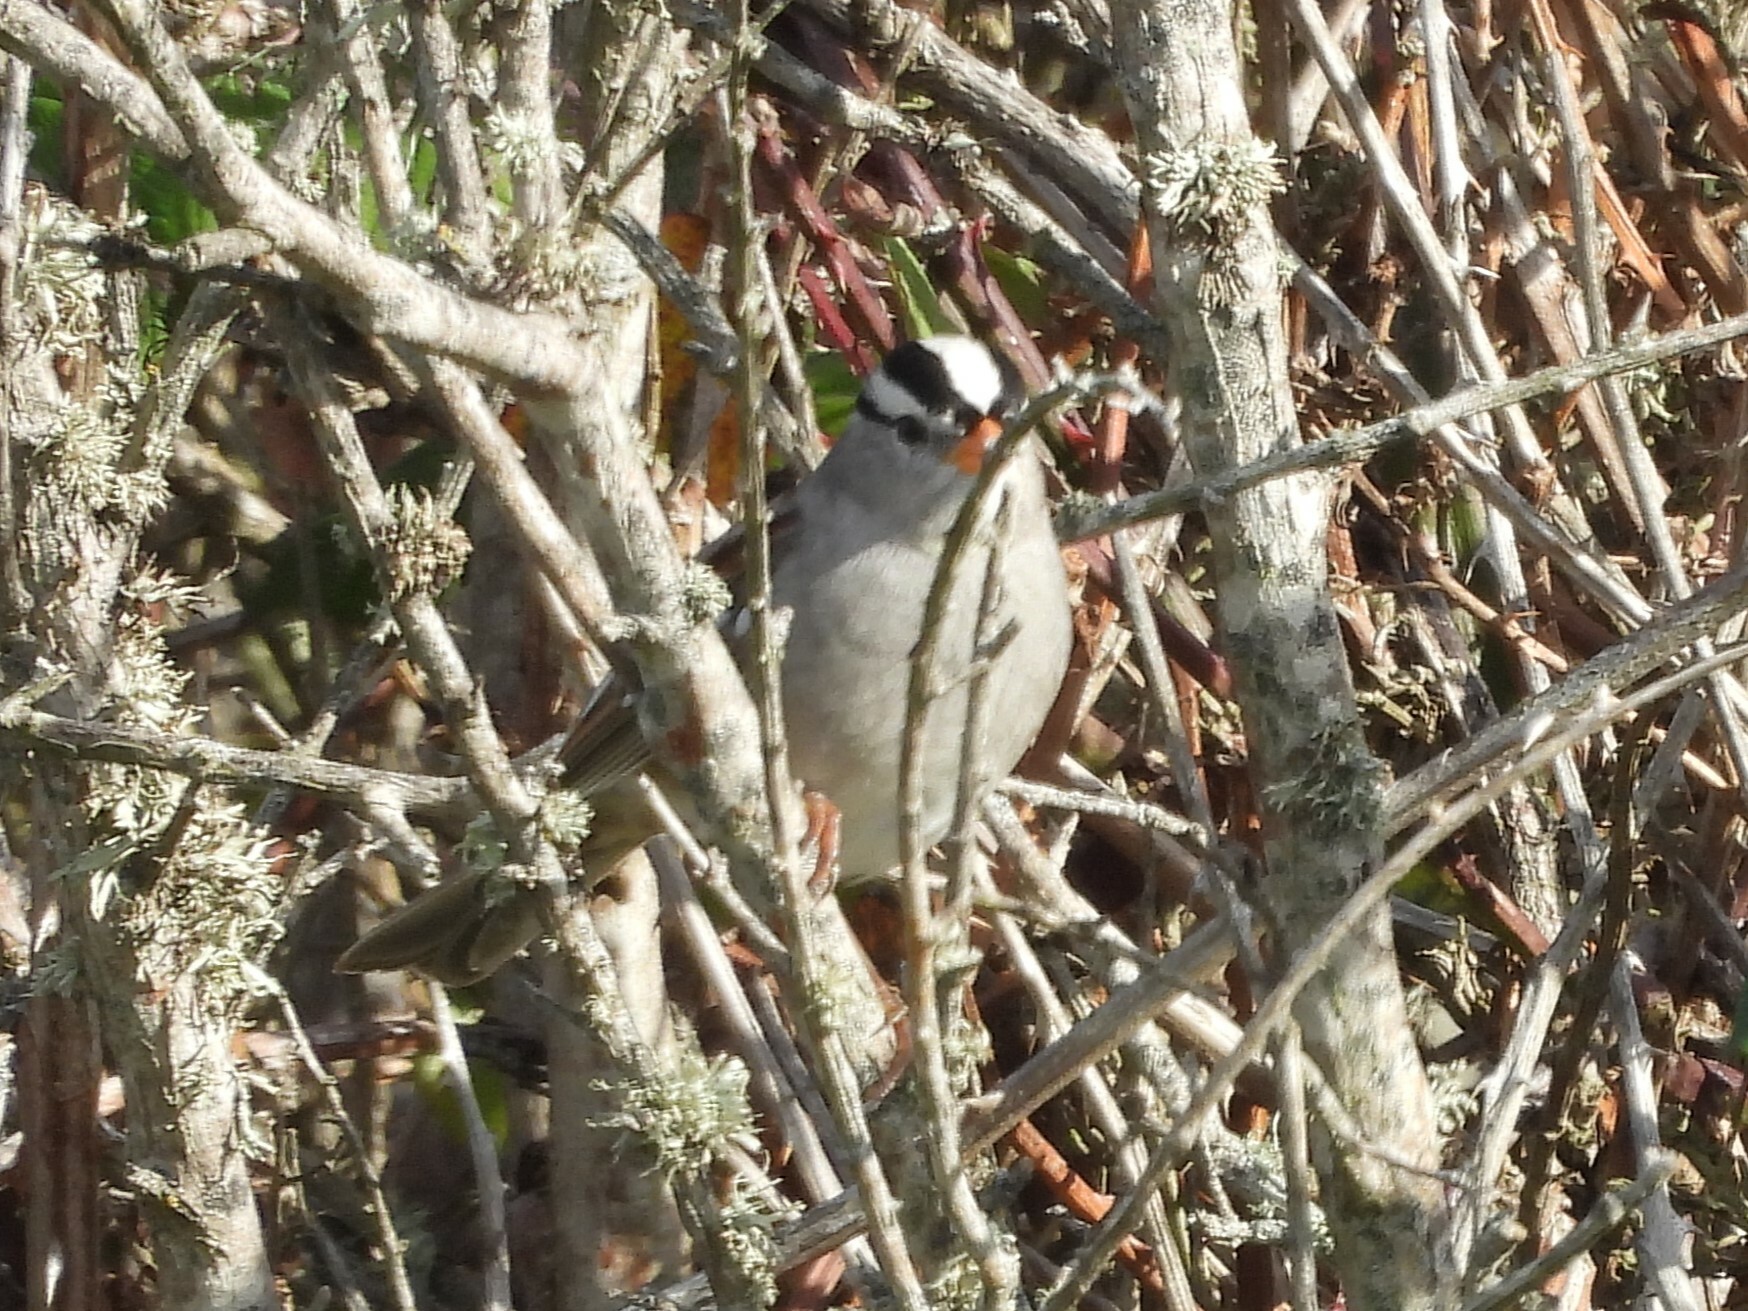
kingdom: Animalia
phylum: Chordata
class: Aves
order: Passeriformes
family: Passerellidae
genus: Zonotrichia
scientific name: Zonotrichia leucophrys
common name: White-crowned sparrow
